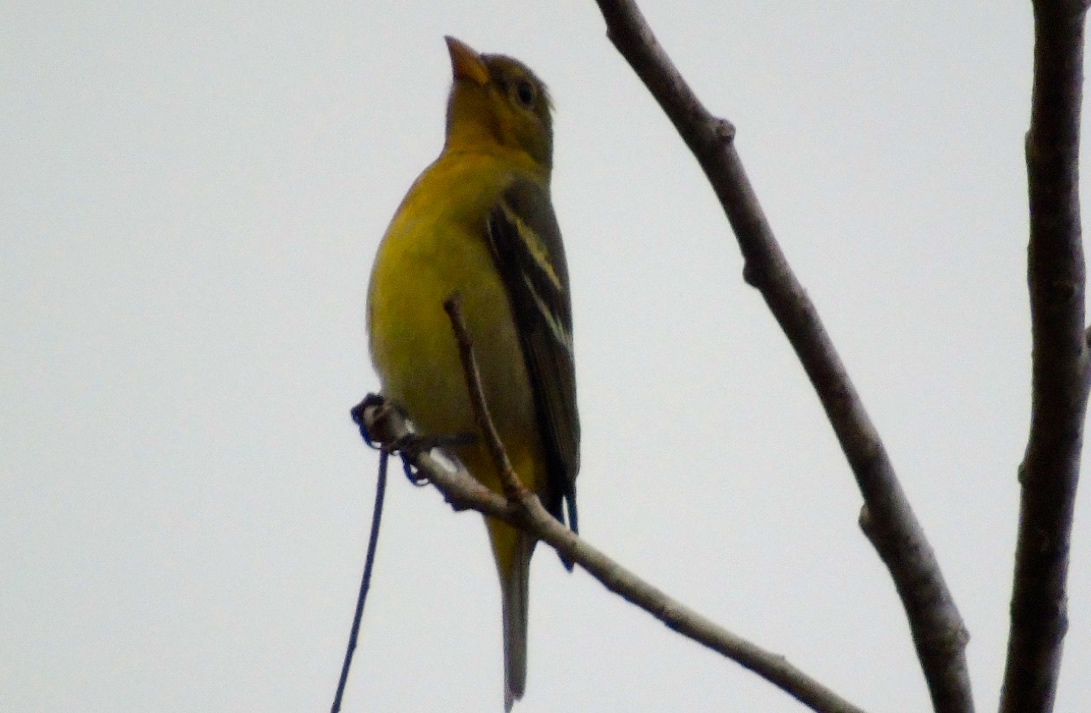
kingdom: Animalia
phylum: Chordata
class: Aves
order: Passeriformes
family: Cardinalidae
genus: Piranga
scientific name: Piranga ludoviciana
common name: Western tanager
